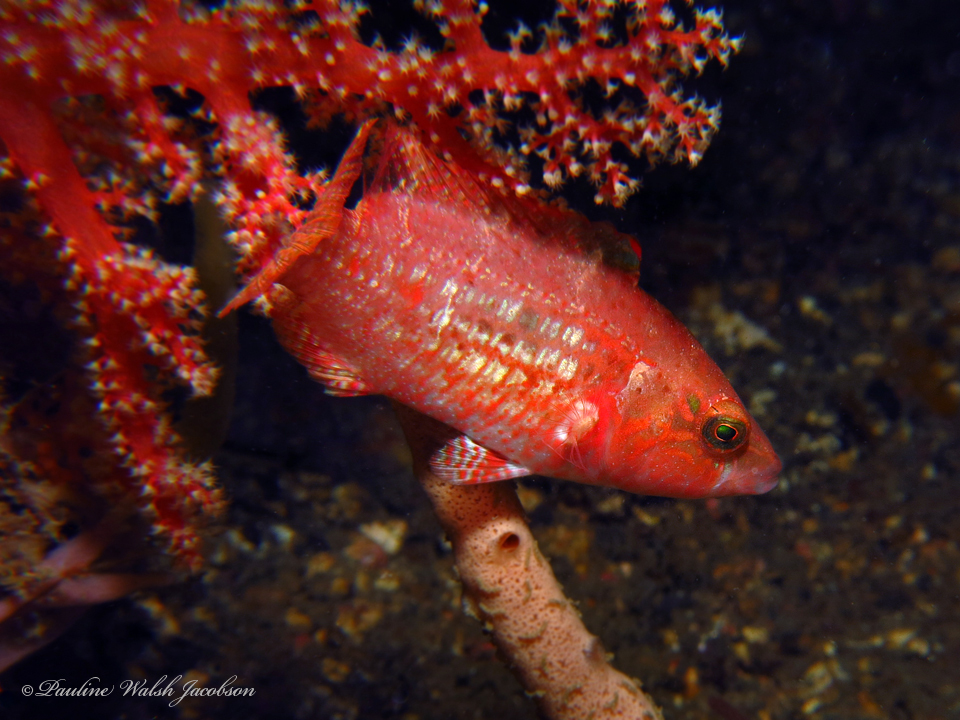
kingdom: Animalia
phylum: Chordata
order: Perciformes
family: Labridae
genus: Oxycheilinus
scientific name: Oxycheilinus bimaculatus
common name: Comettailed wrasse
